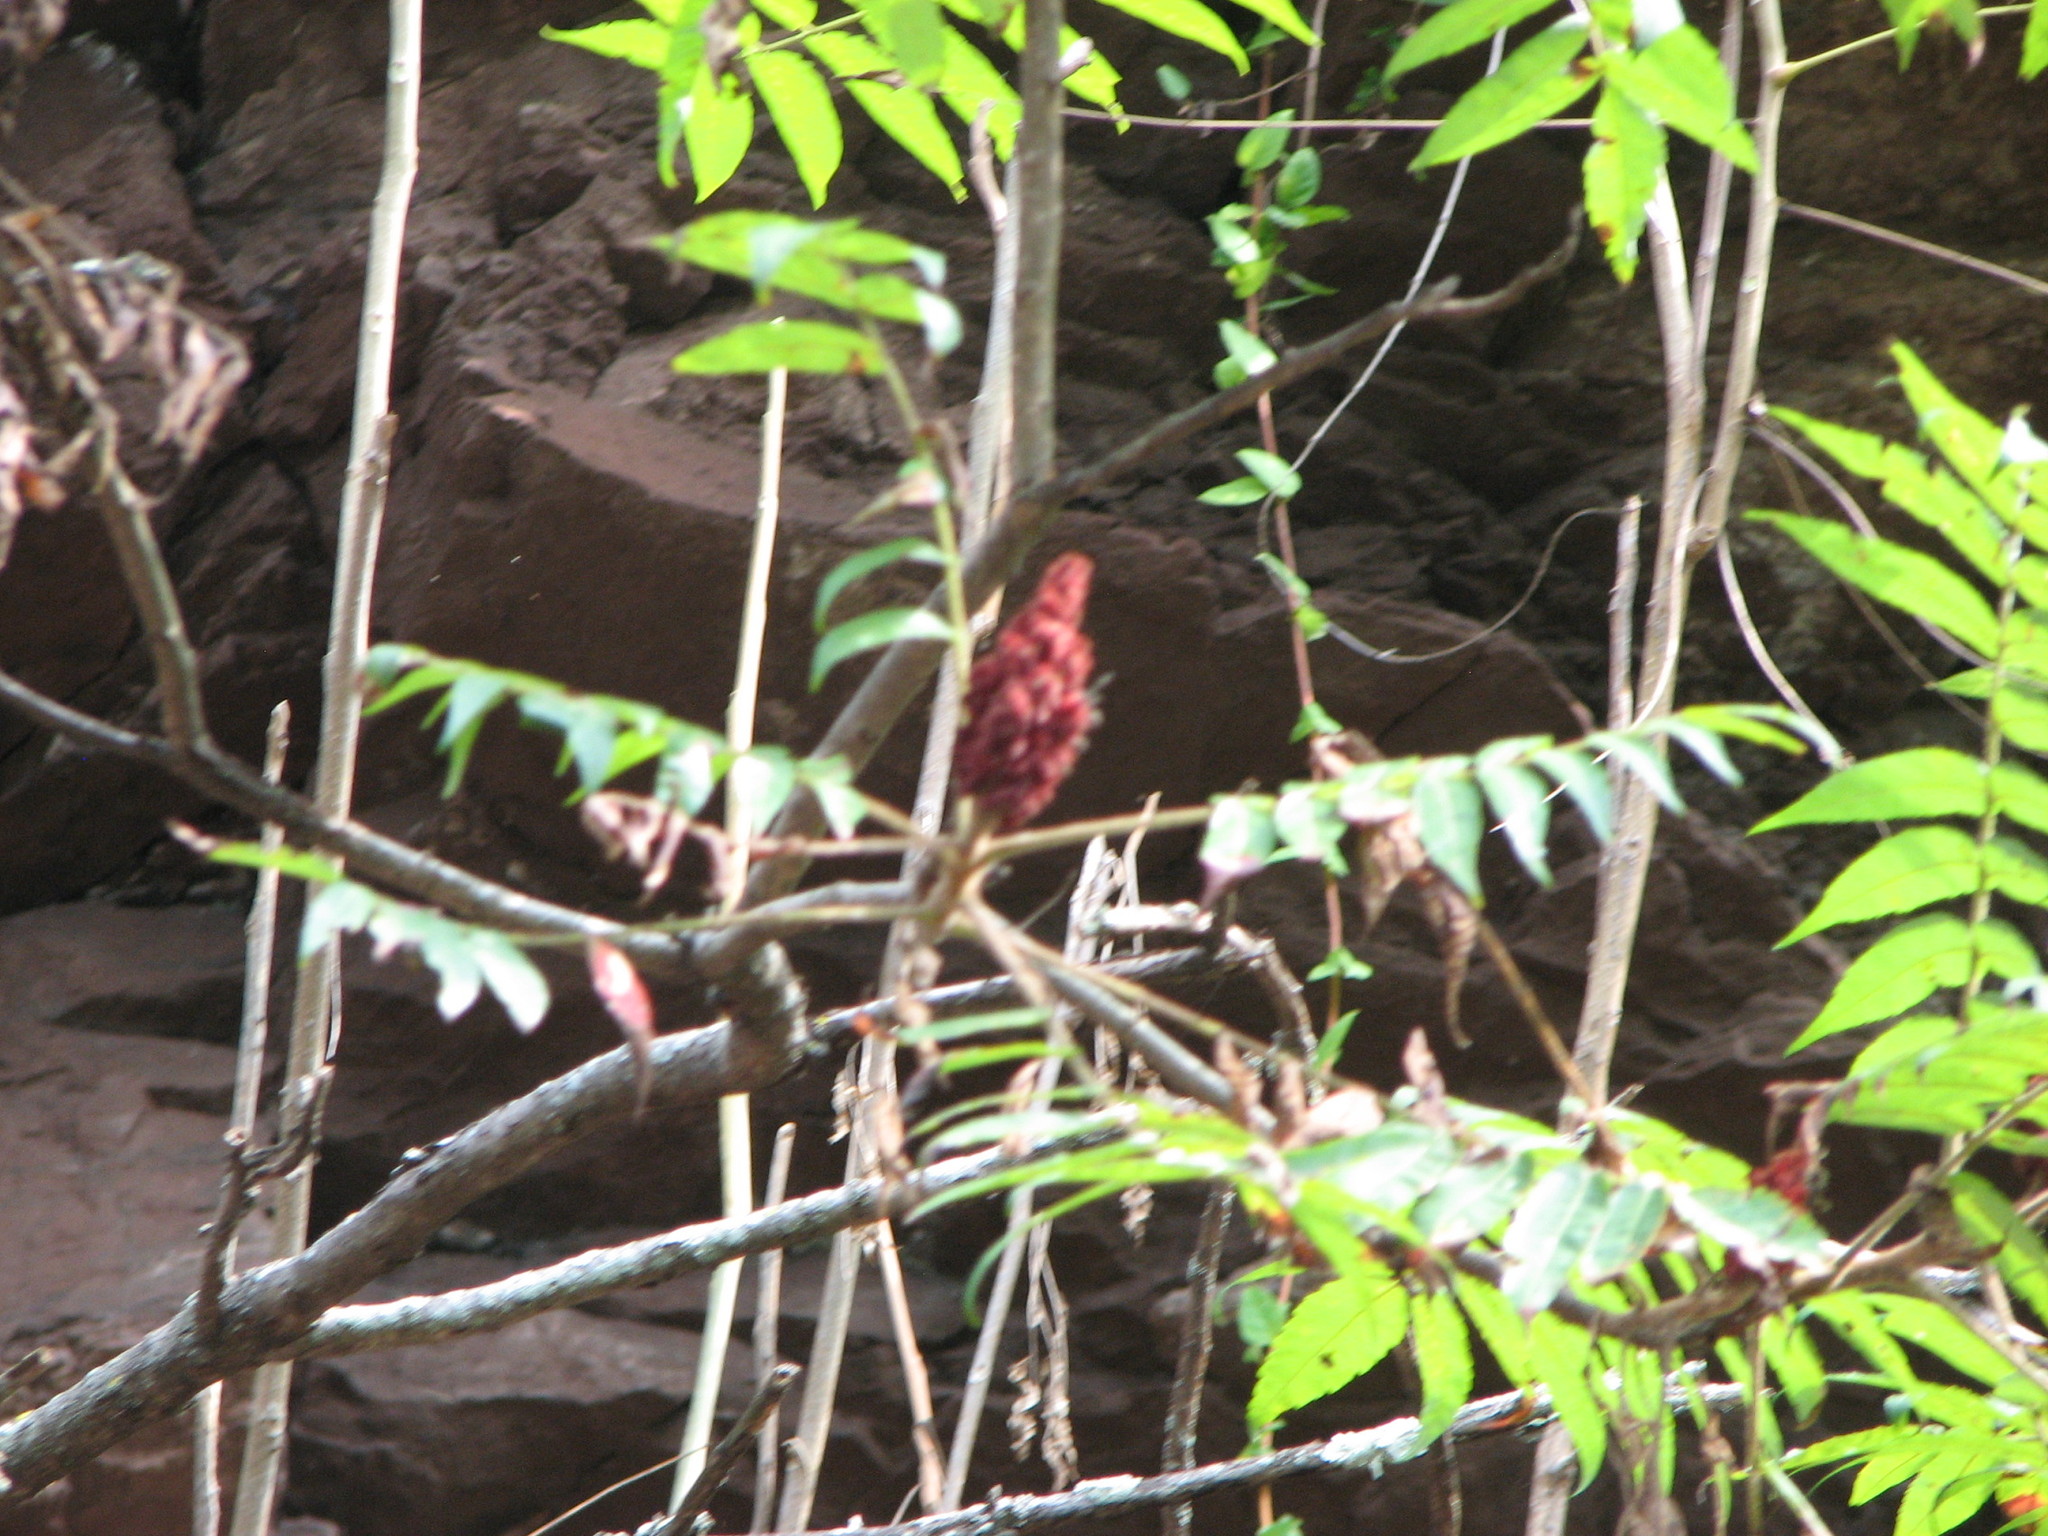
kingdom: Plantae
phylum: Tracheophyta
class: Magnoliopsida
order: Sapindales
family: Anacardiaceae
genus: Rhus
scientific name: Rhus typhina
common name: Staghorn sumac
